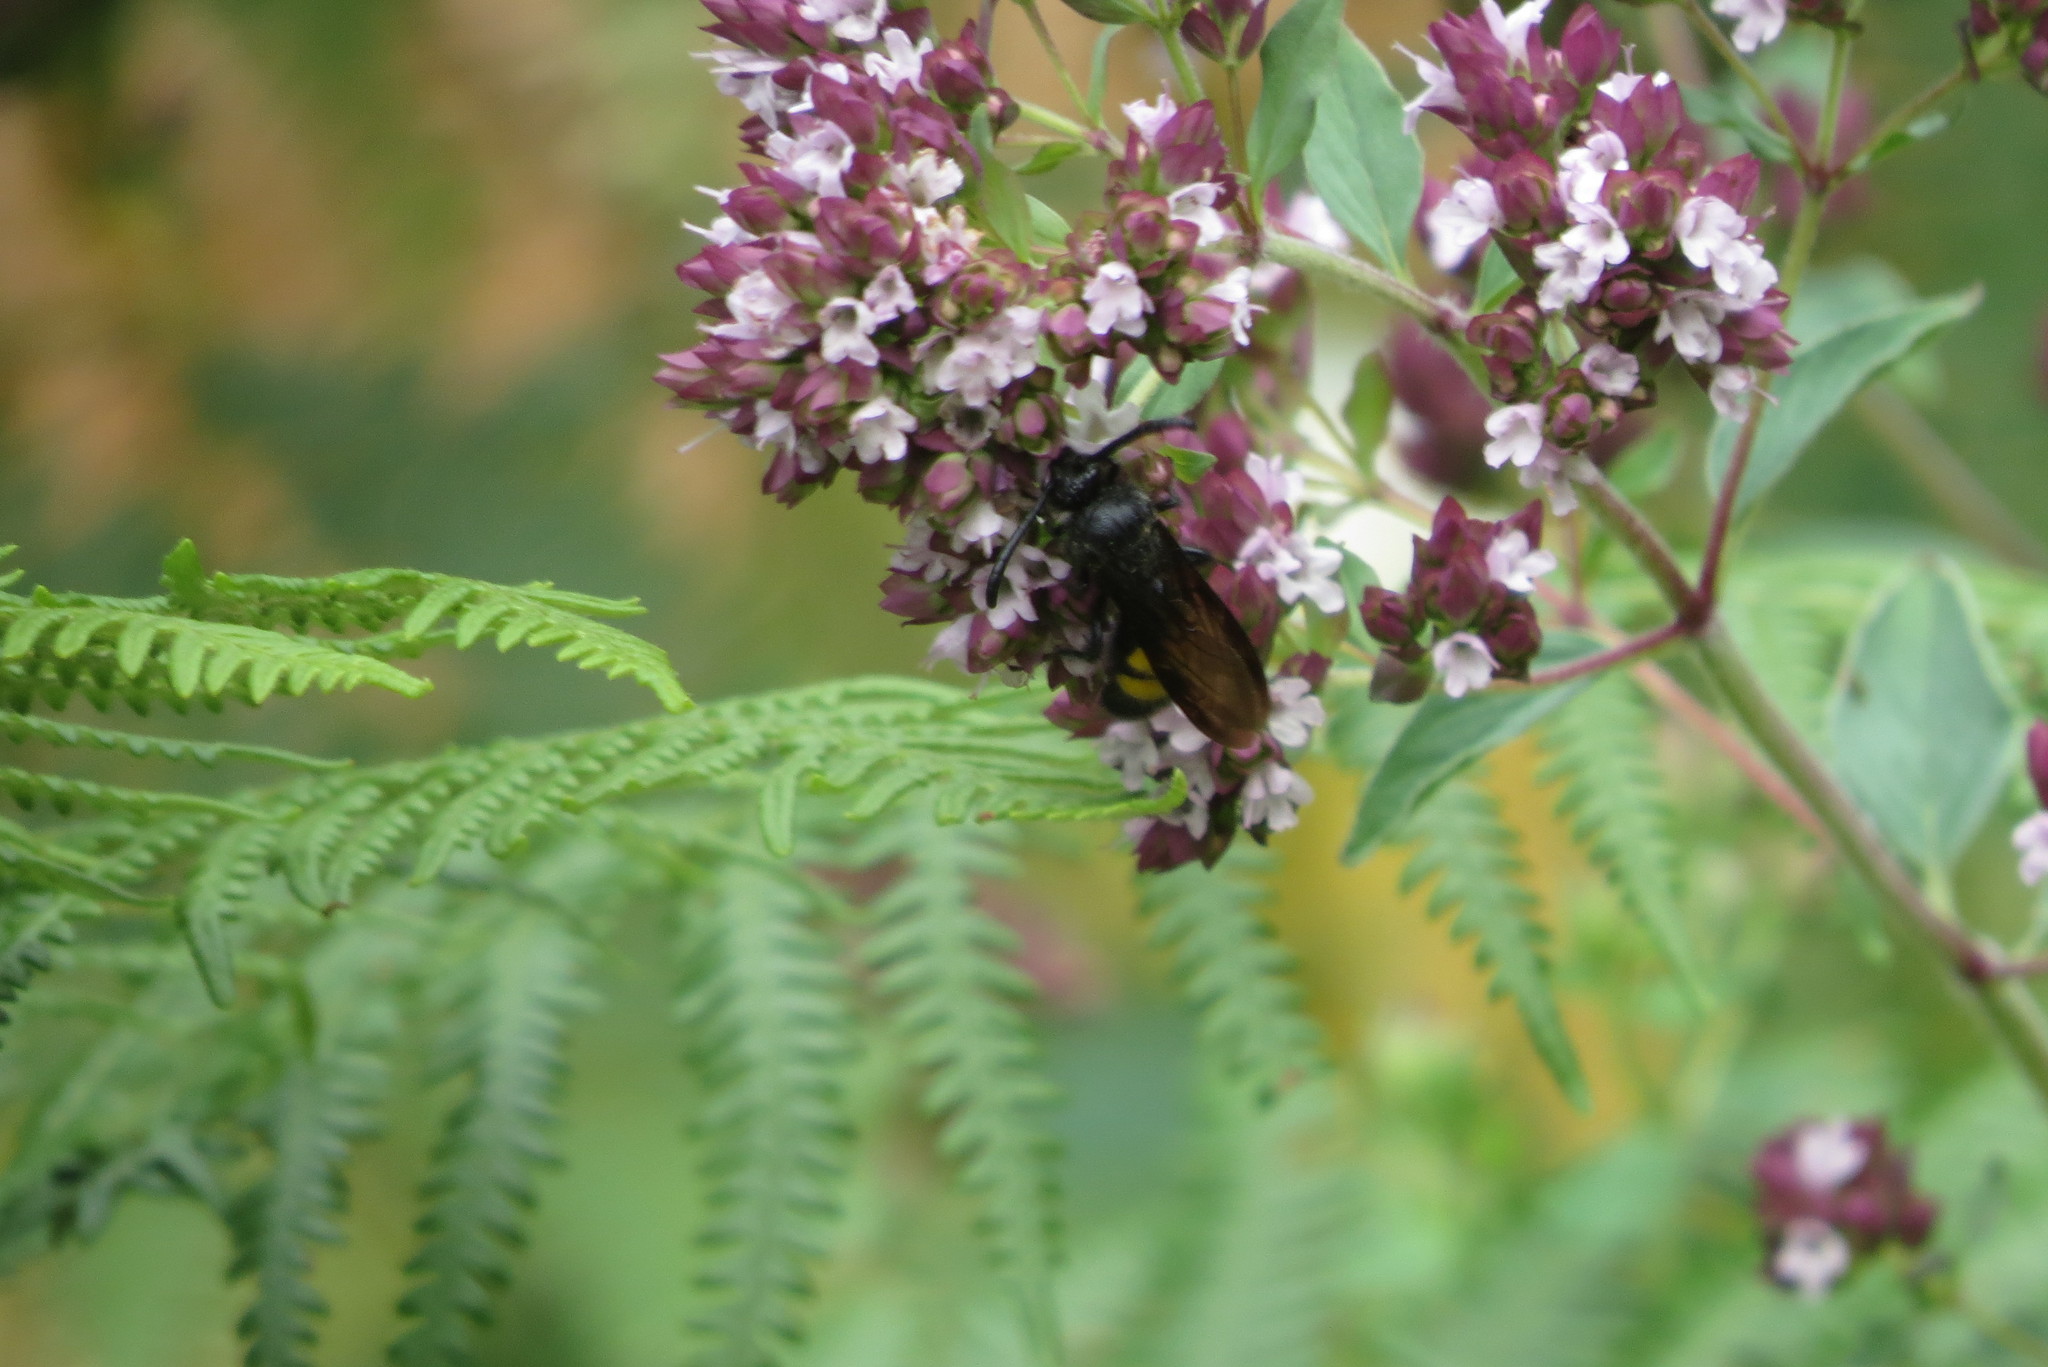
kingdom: Animalia
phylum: Arthropoda
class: Insecta
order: Hymenoptera
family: Scoliidae
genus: Scolia
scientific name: Scolia hirta
